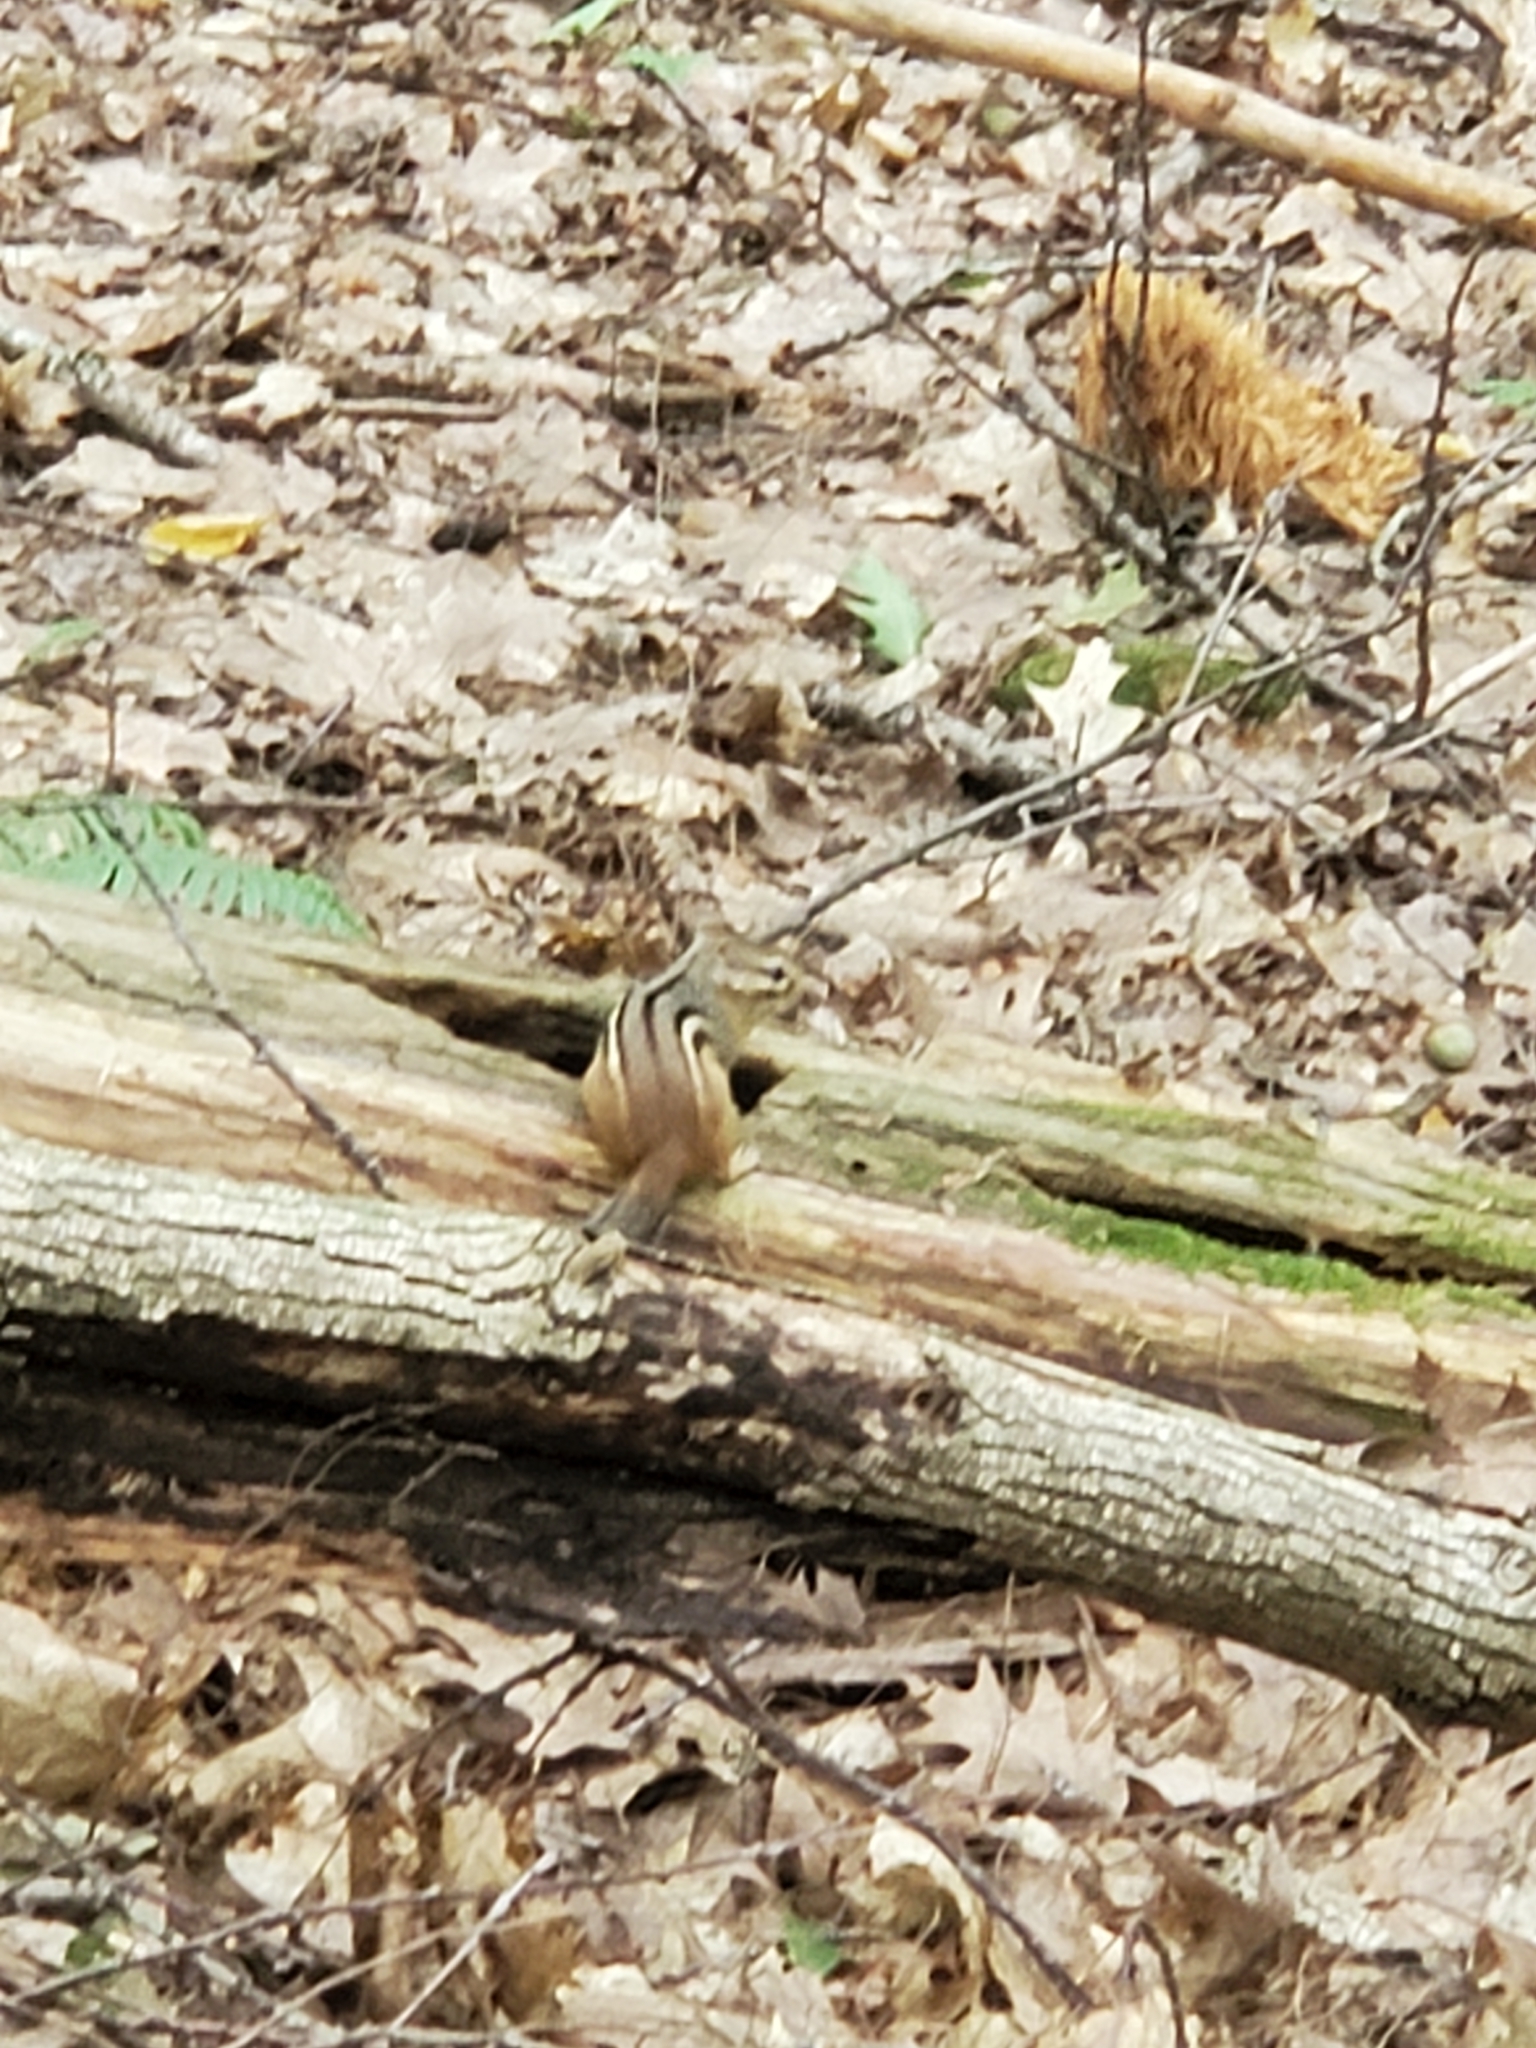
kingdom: Animalia
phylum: Chordata
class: Mammalia
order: Rodentia
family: Sciuridae
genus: Tamias
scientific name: Tamias striatus
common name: Eastern chipmunk
